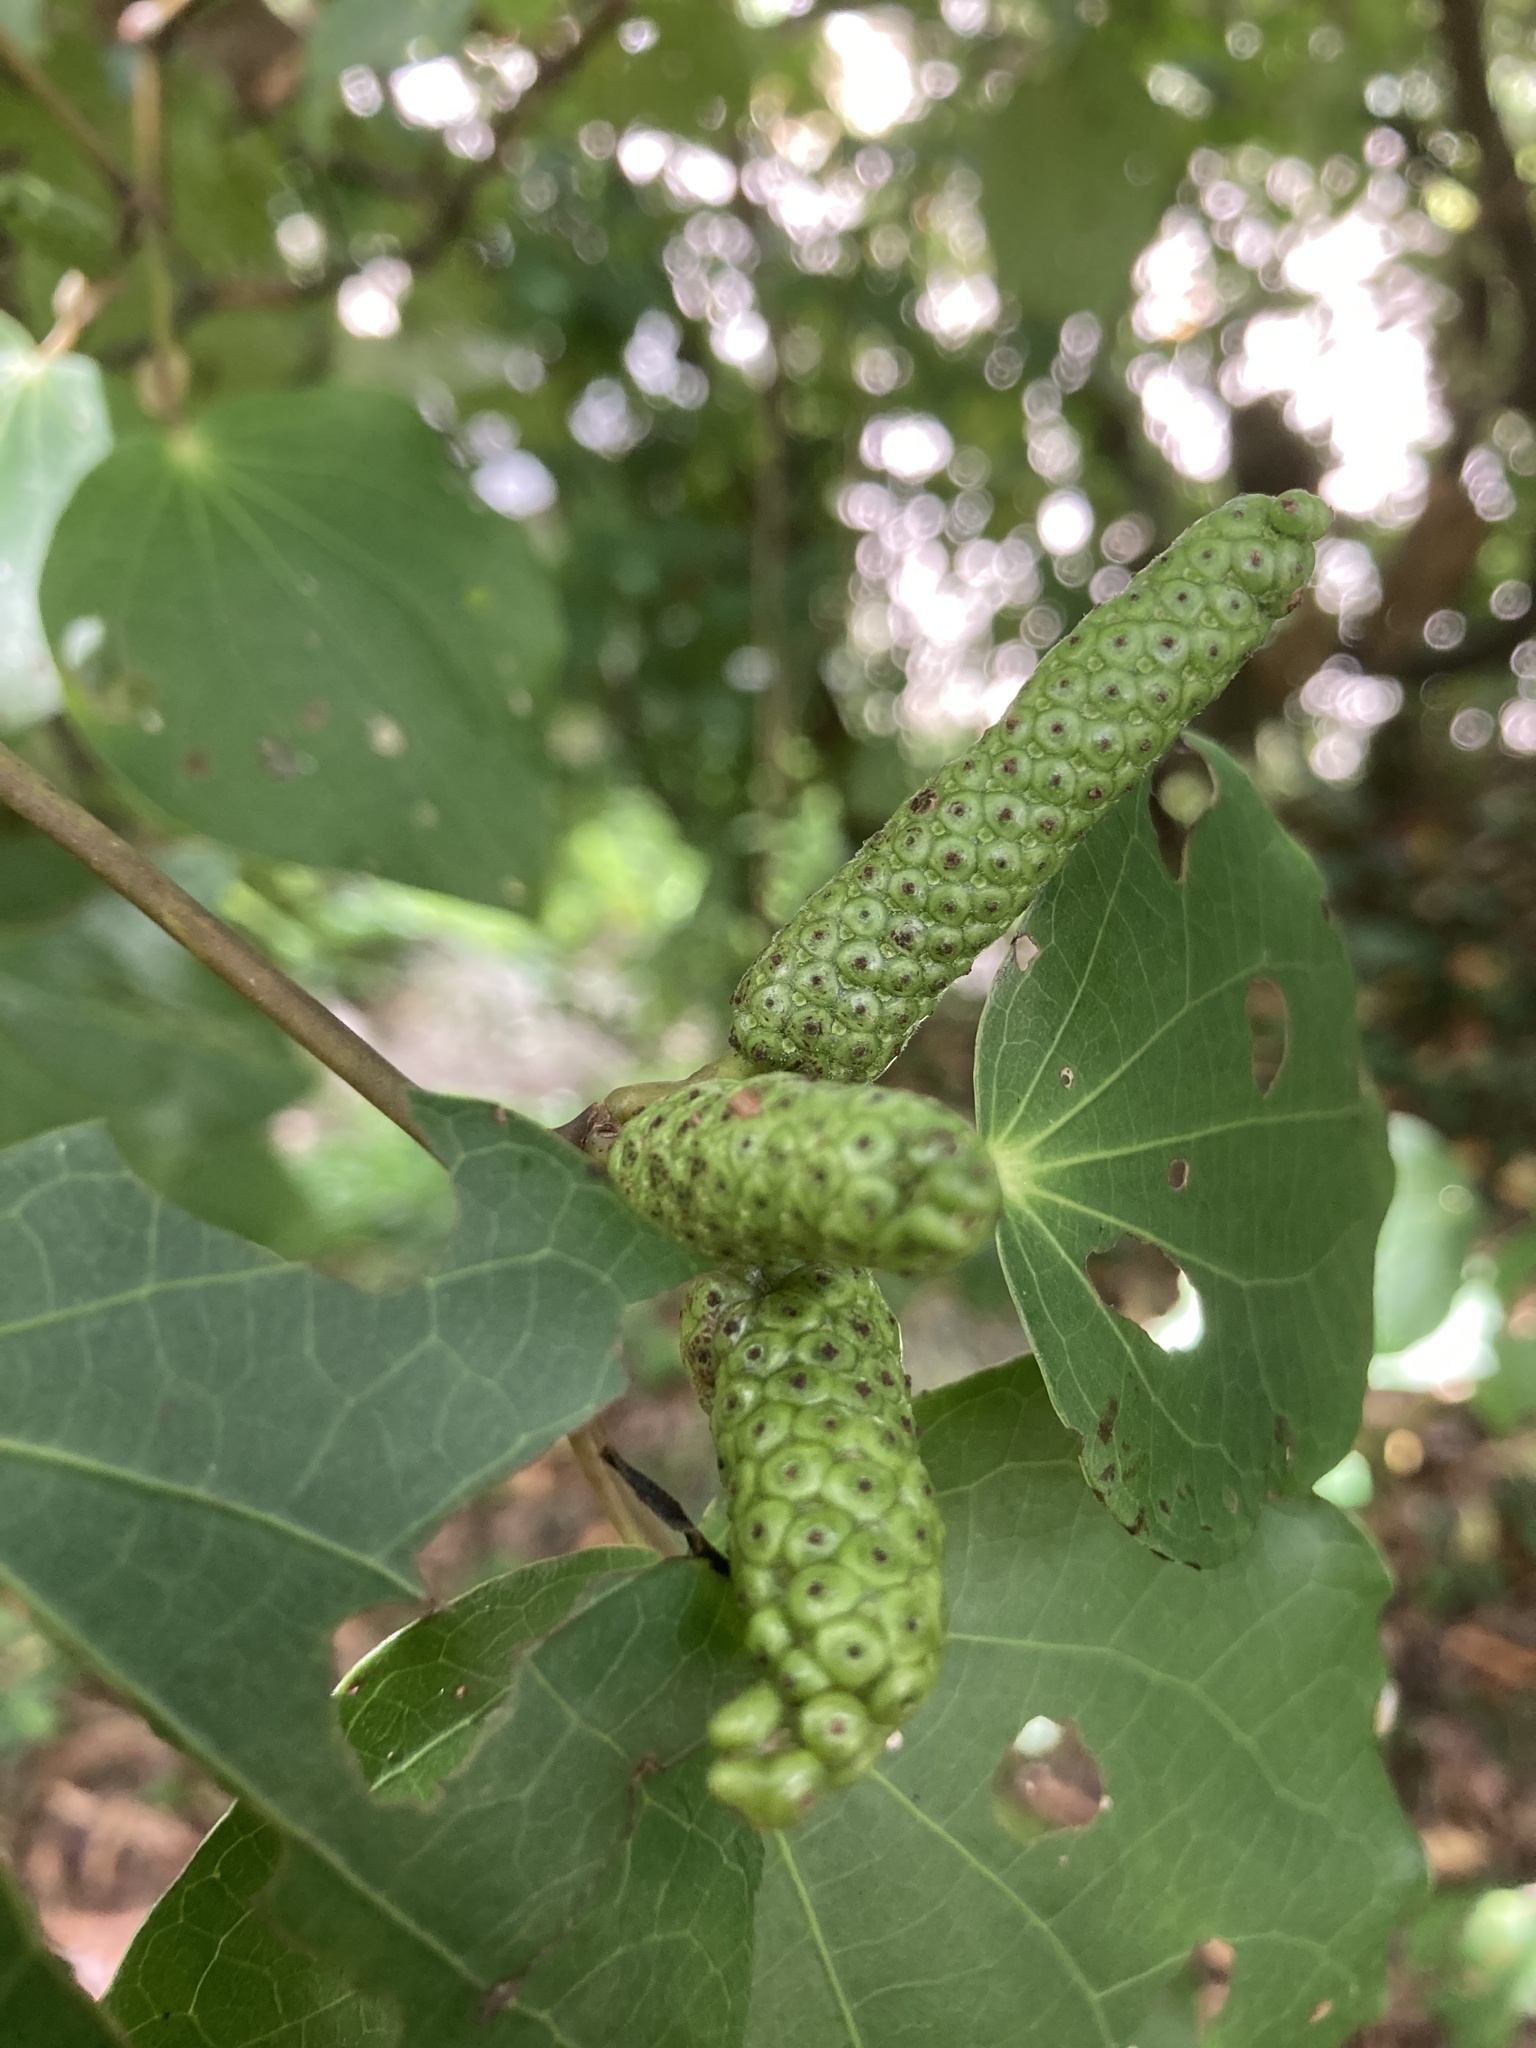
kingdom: Plantae
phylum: Tracheophyta
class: Magnoliopsida
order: Piperales
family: Piperaceae
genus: Macropiper
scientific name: Macropiper excelsum
